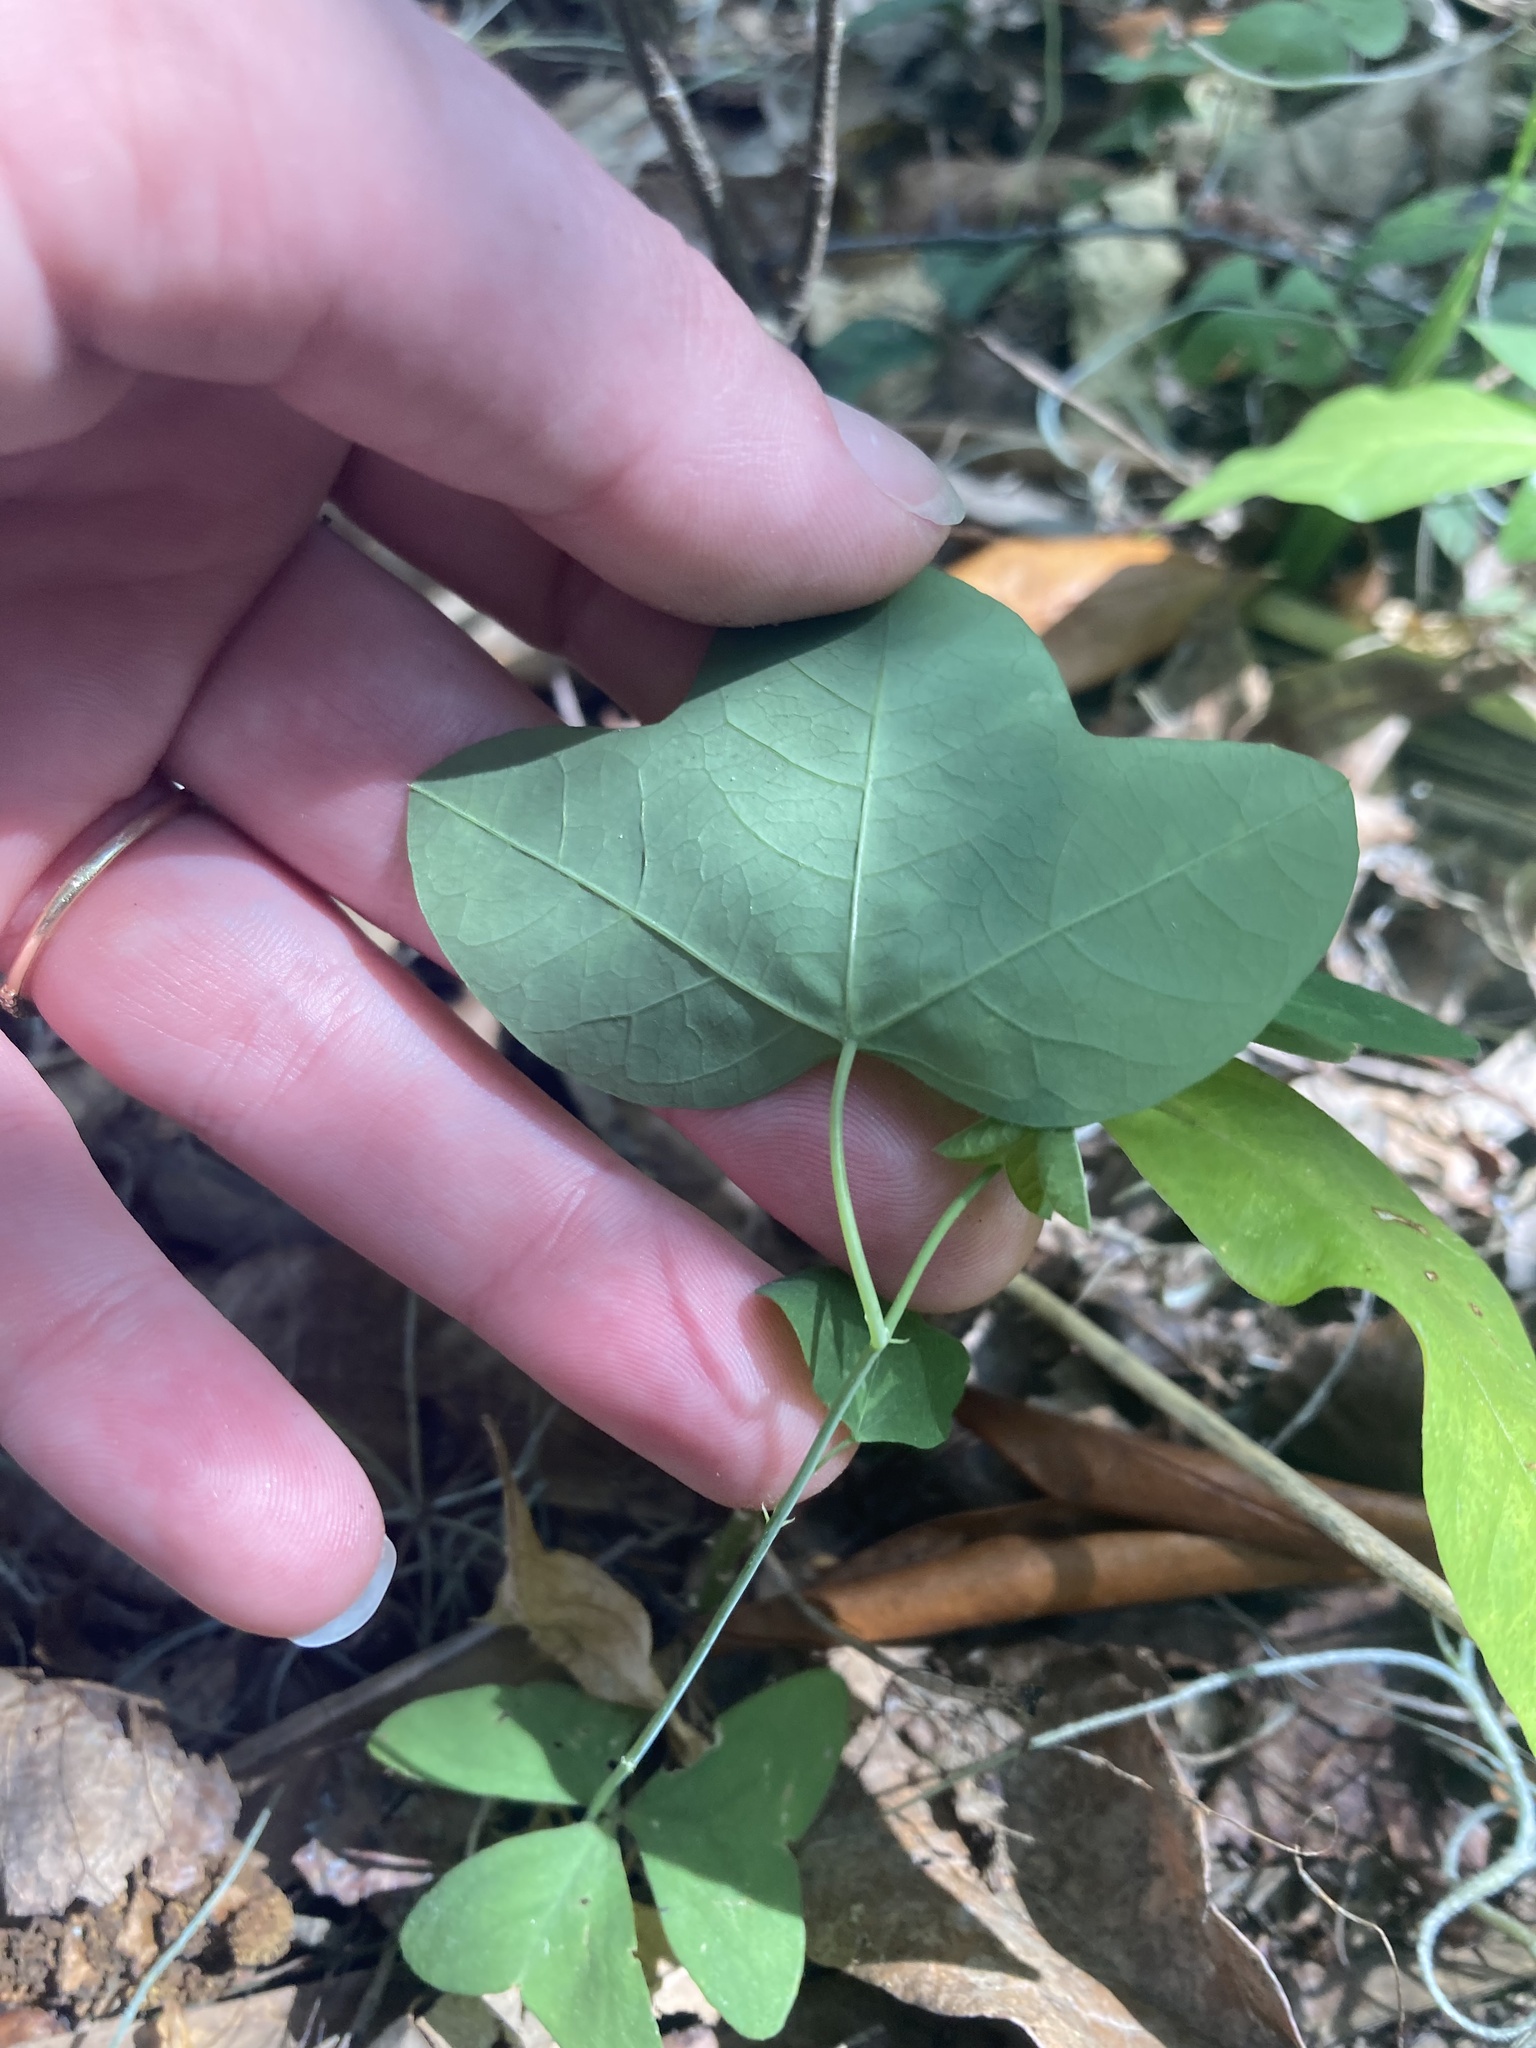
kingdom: Plantae
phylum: Tracheophyta
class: Magnoliopsida
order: Malpighiales
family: Passifloraceae
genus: Passiflora
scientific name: Passiflora lutea
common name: Yellow passionflower
